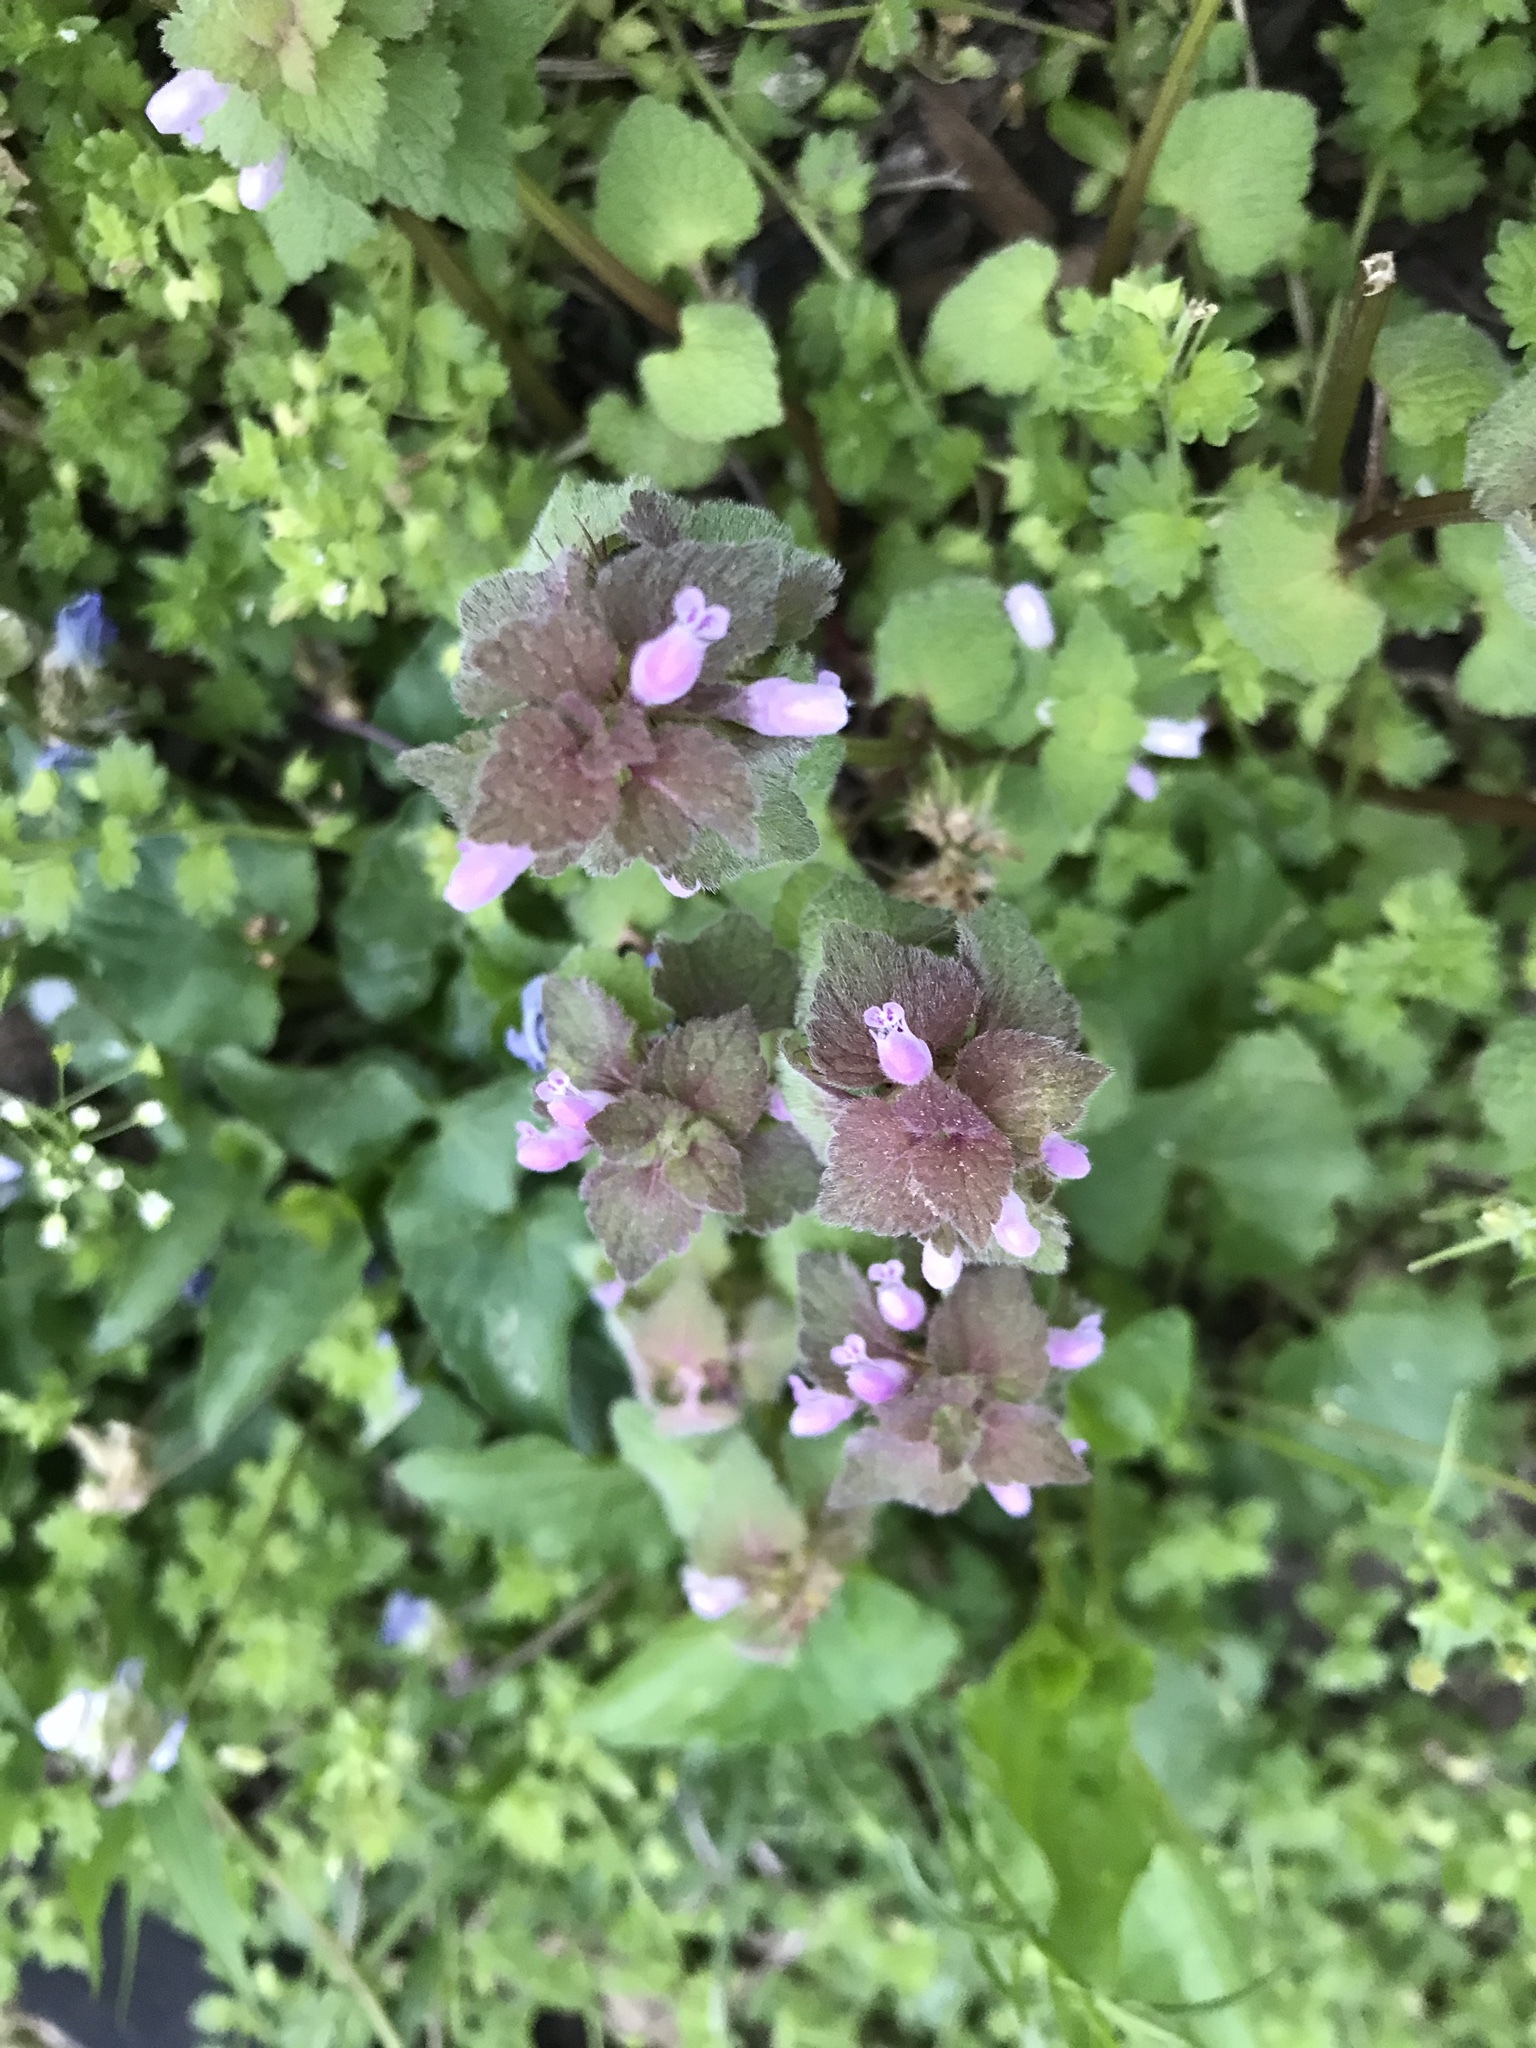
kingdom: Plantae
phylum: Tracheophyta
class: Magnoliopsida
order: Lamiales
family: Lamiaceae
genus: Lamium
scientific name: Lamium purpureum
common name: Red dead-nettle
